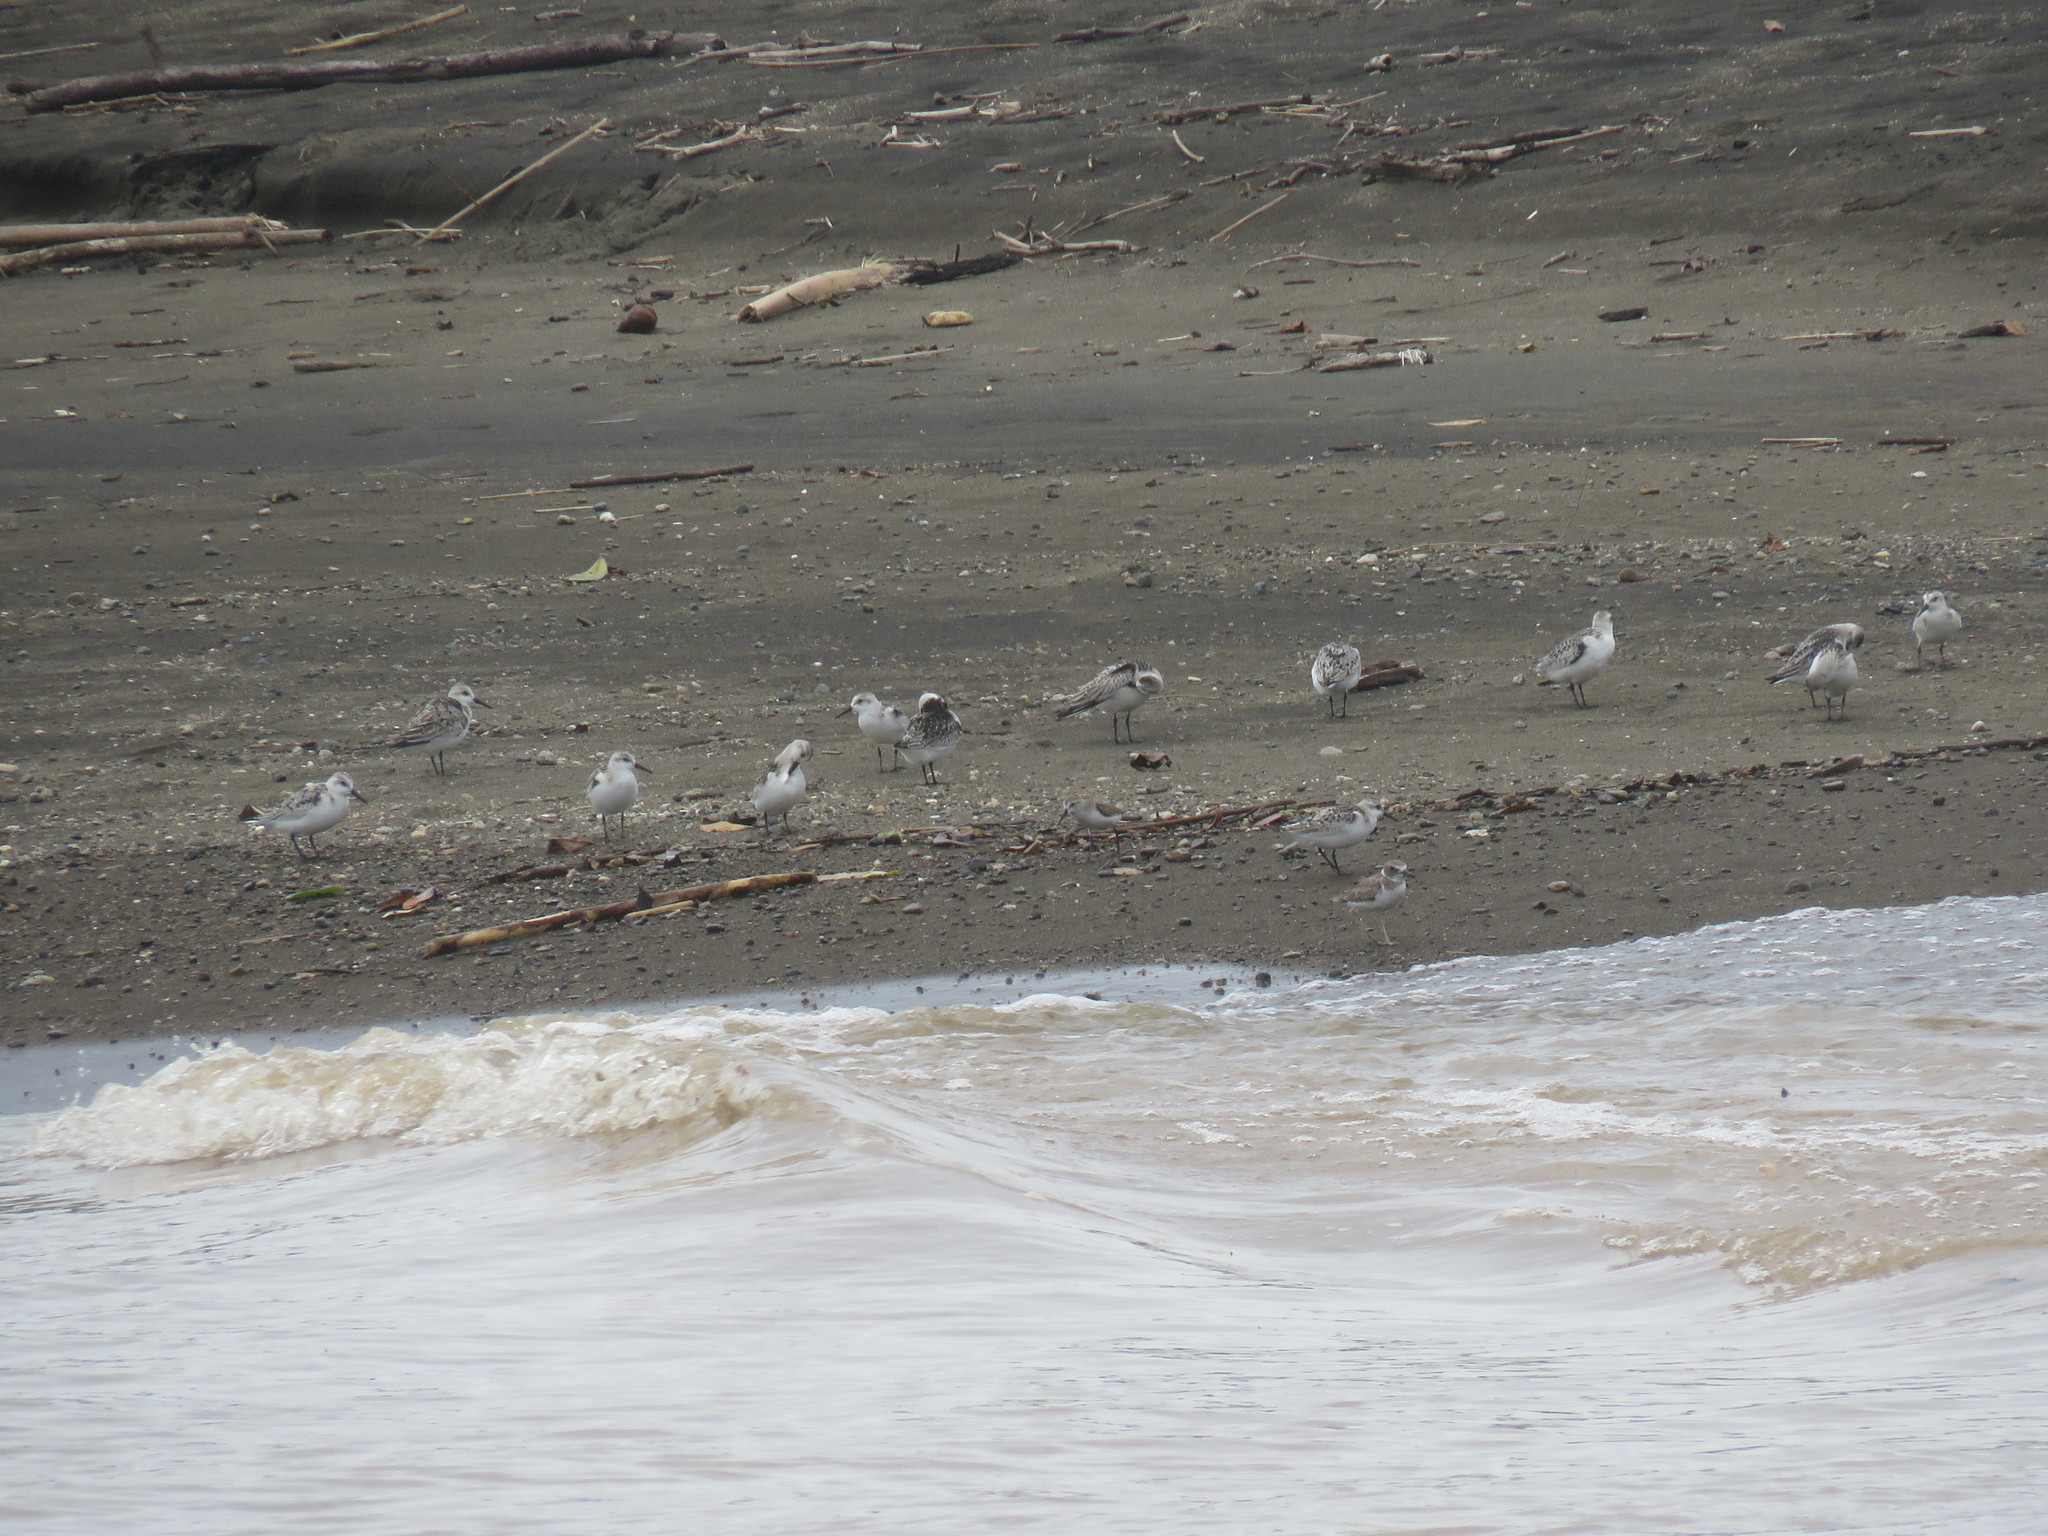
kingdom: Animalia
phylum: Chordata
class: Aves
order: Charadriiformes
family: Scolopacidae
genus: Calidris
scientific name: Calidris alba
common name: Sanderling
